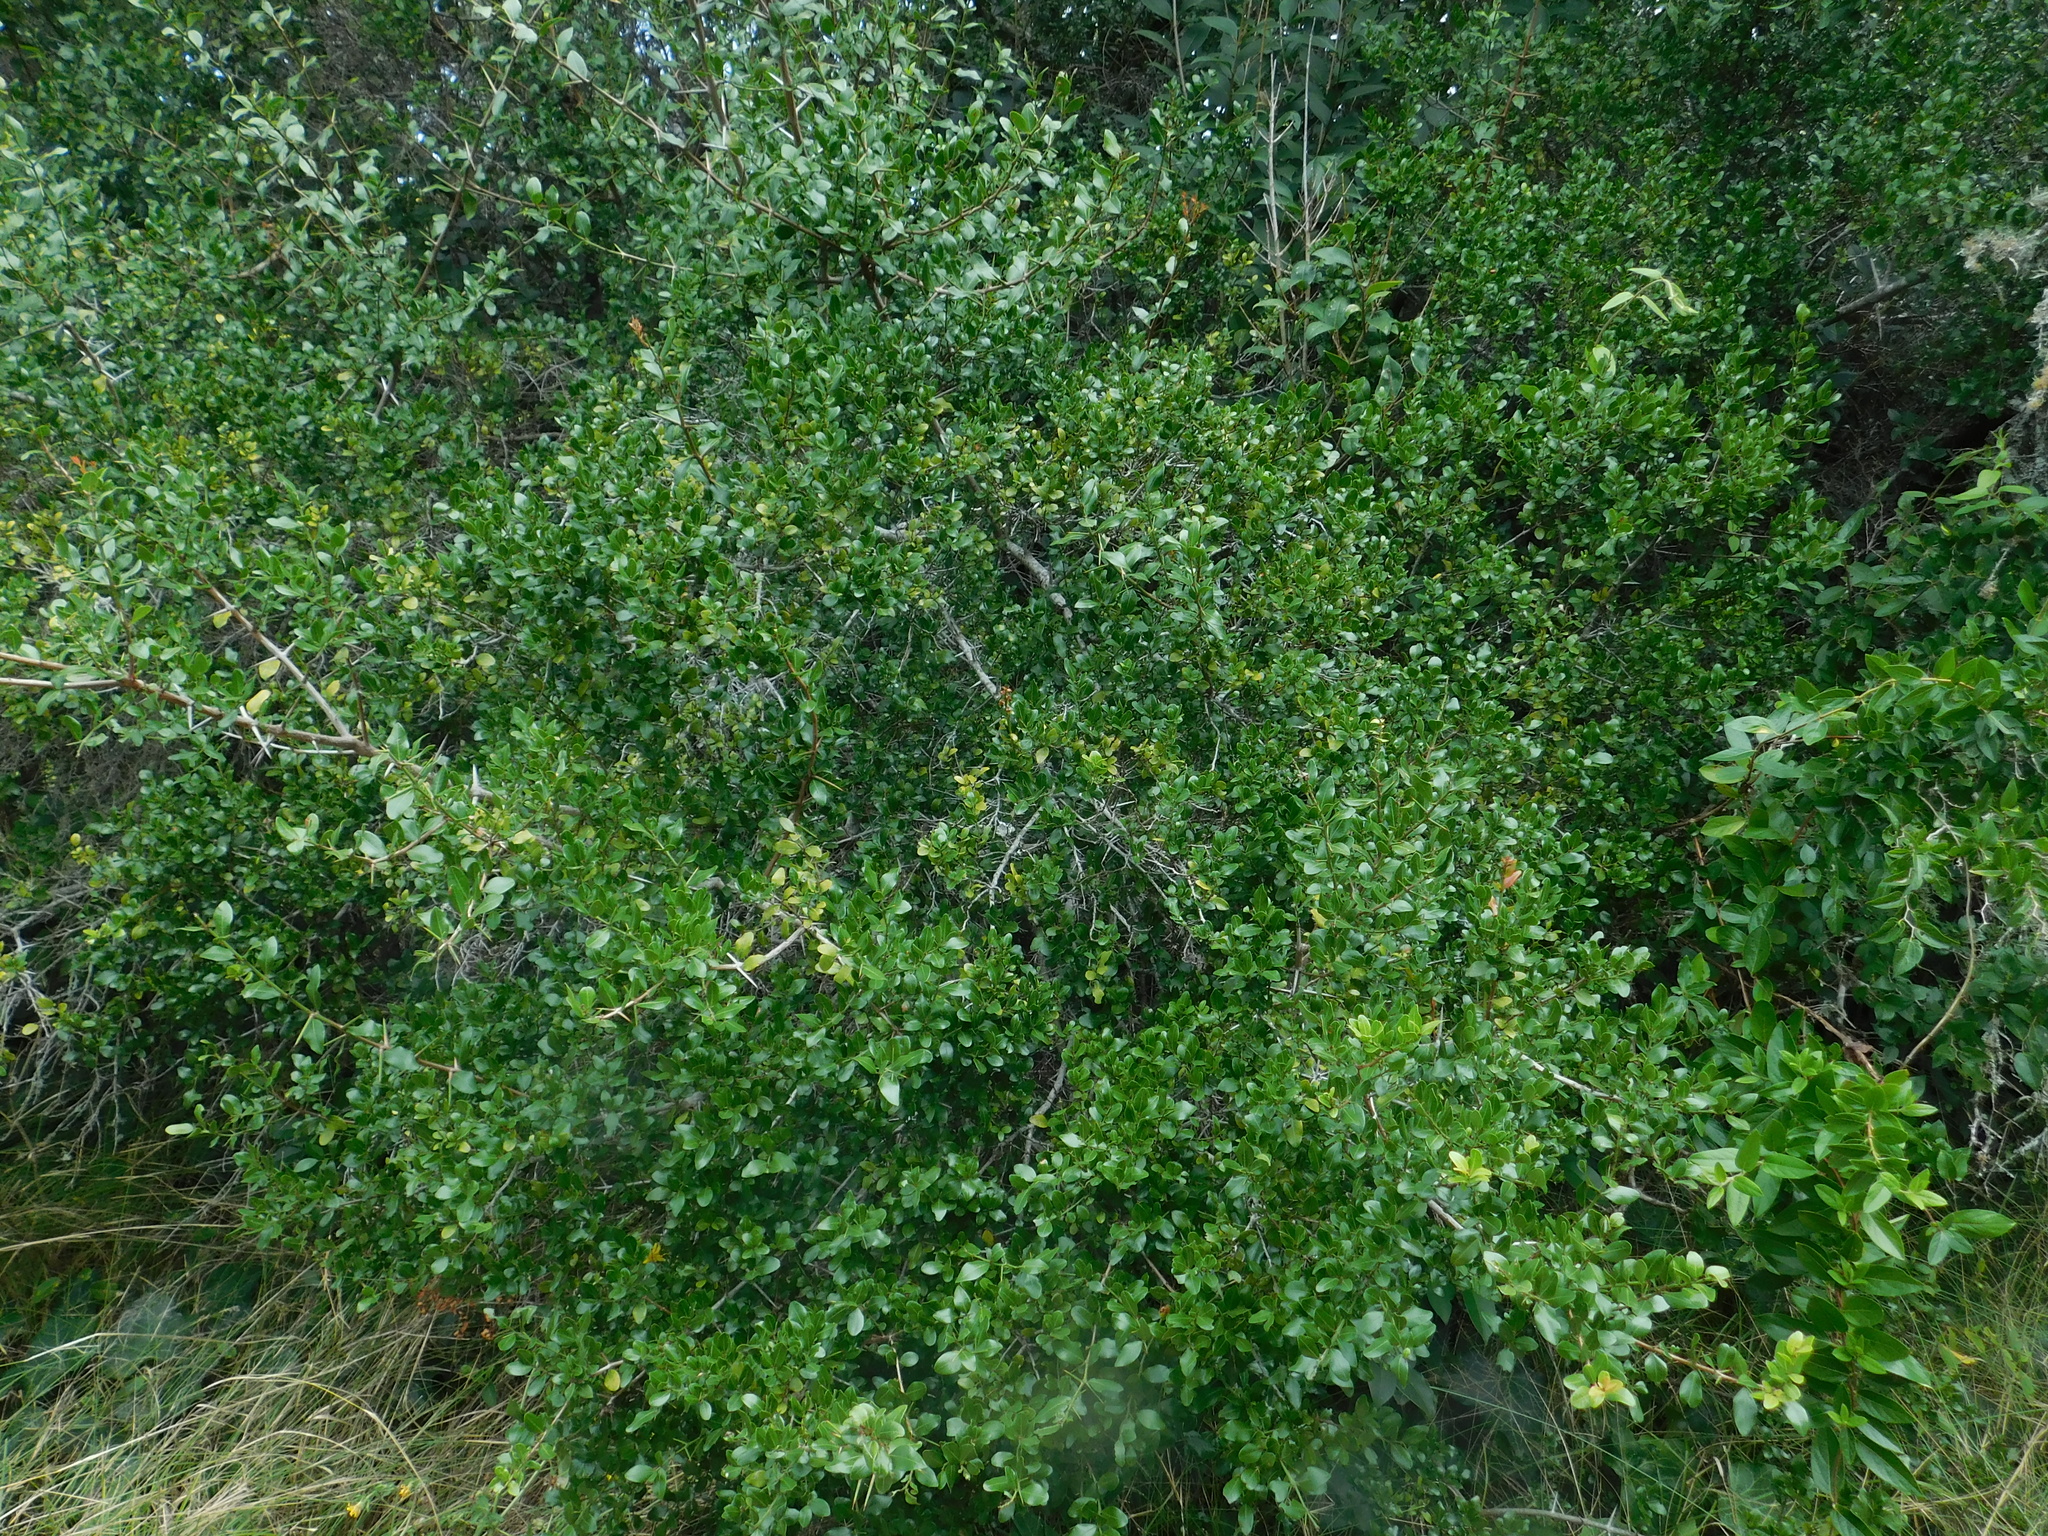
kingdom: Plantae
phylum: Tracheophyta
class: Magnoliopsida
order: Rosales
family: Rhamnaceae
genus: Scutia
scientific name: Scutia buxifolia
